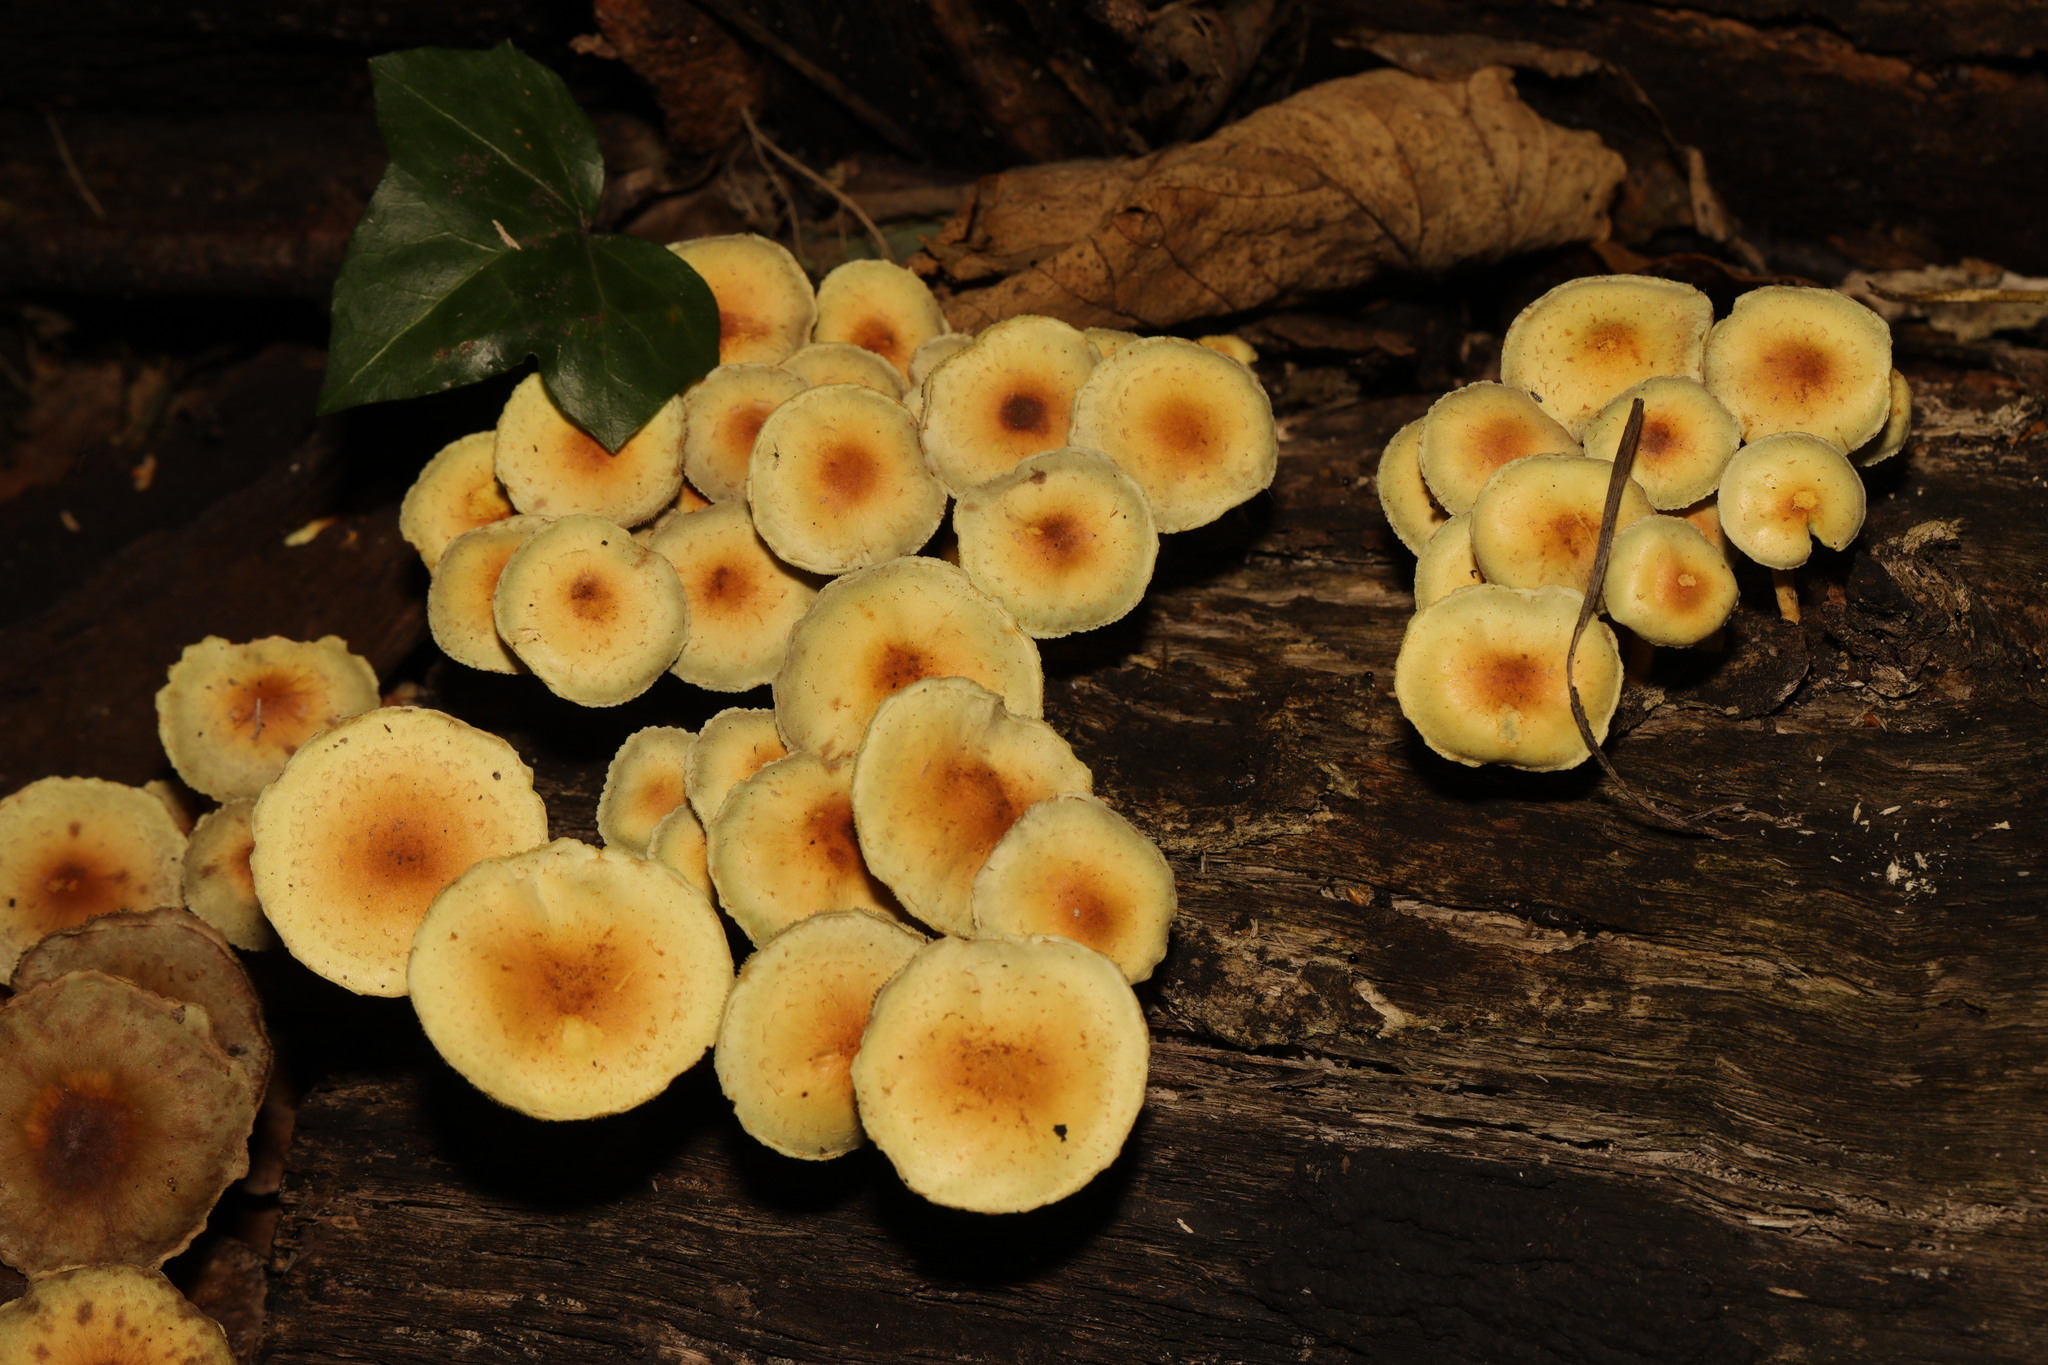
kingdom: Fungi
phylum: Basidiomycota
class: Agaricomycetes
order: Agaricales
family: Strophariaceae
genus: Hypholoma
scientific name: Hypholoma fasciculare
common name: Sulphur tuft
